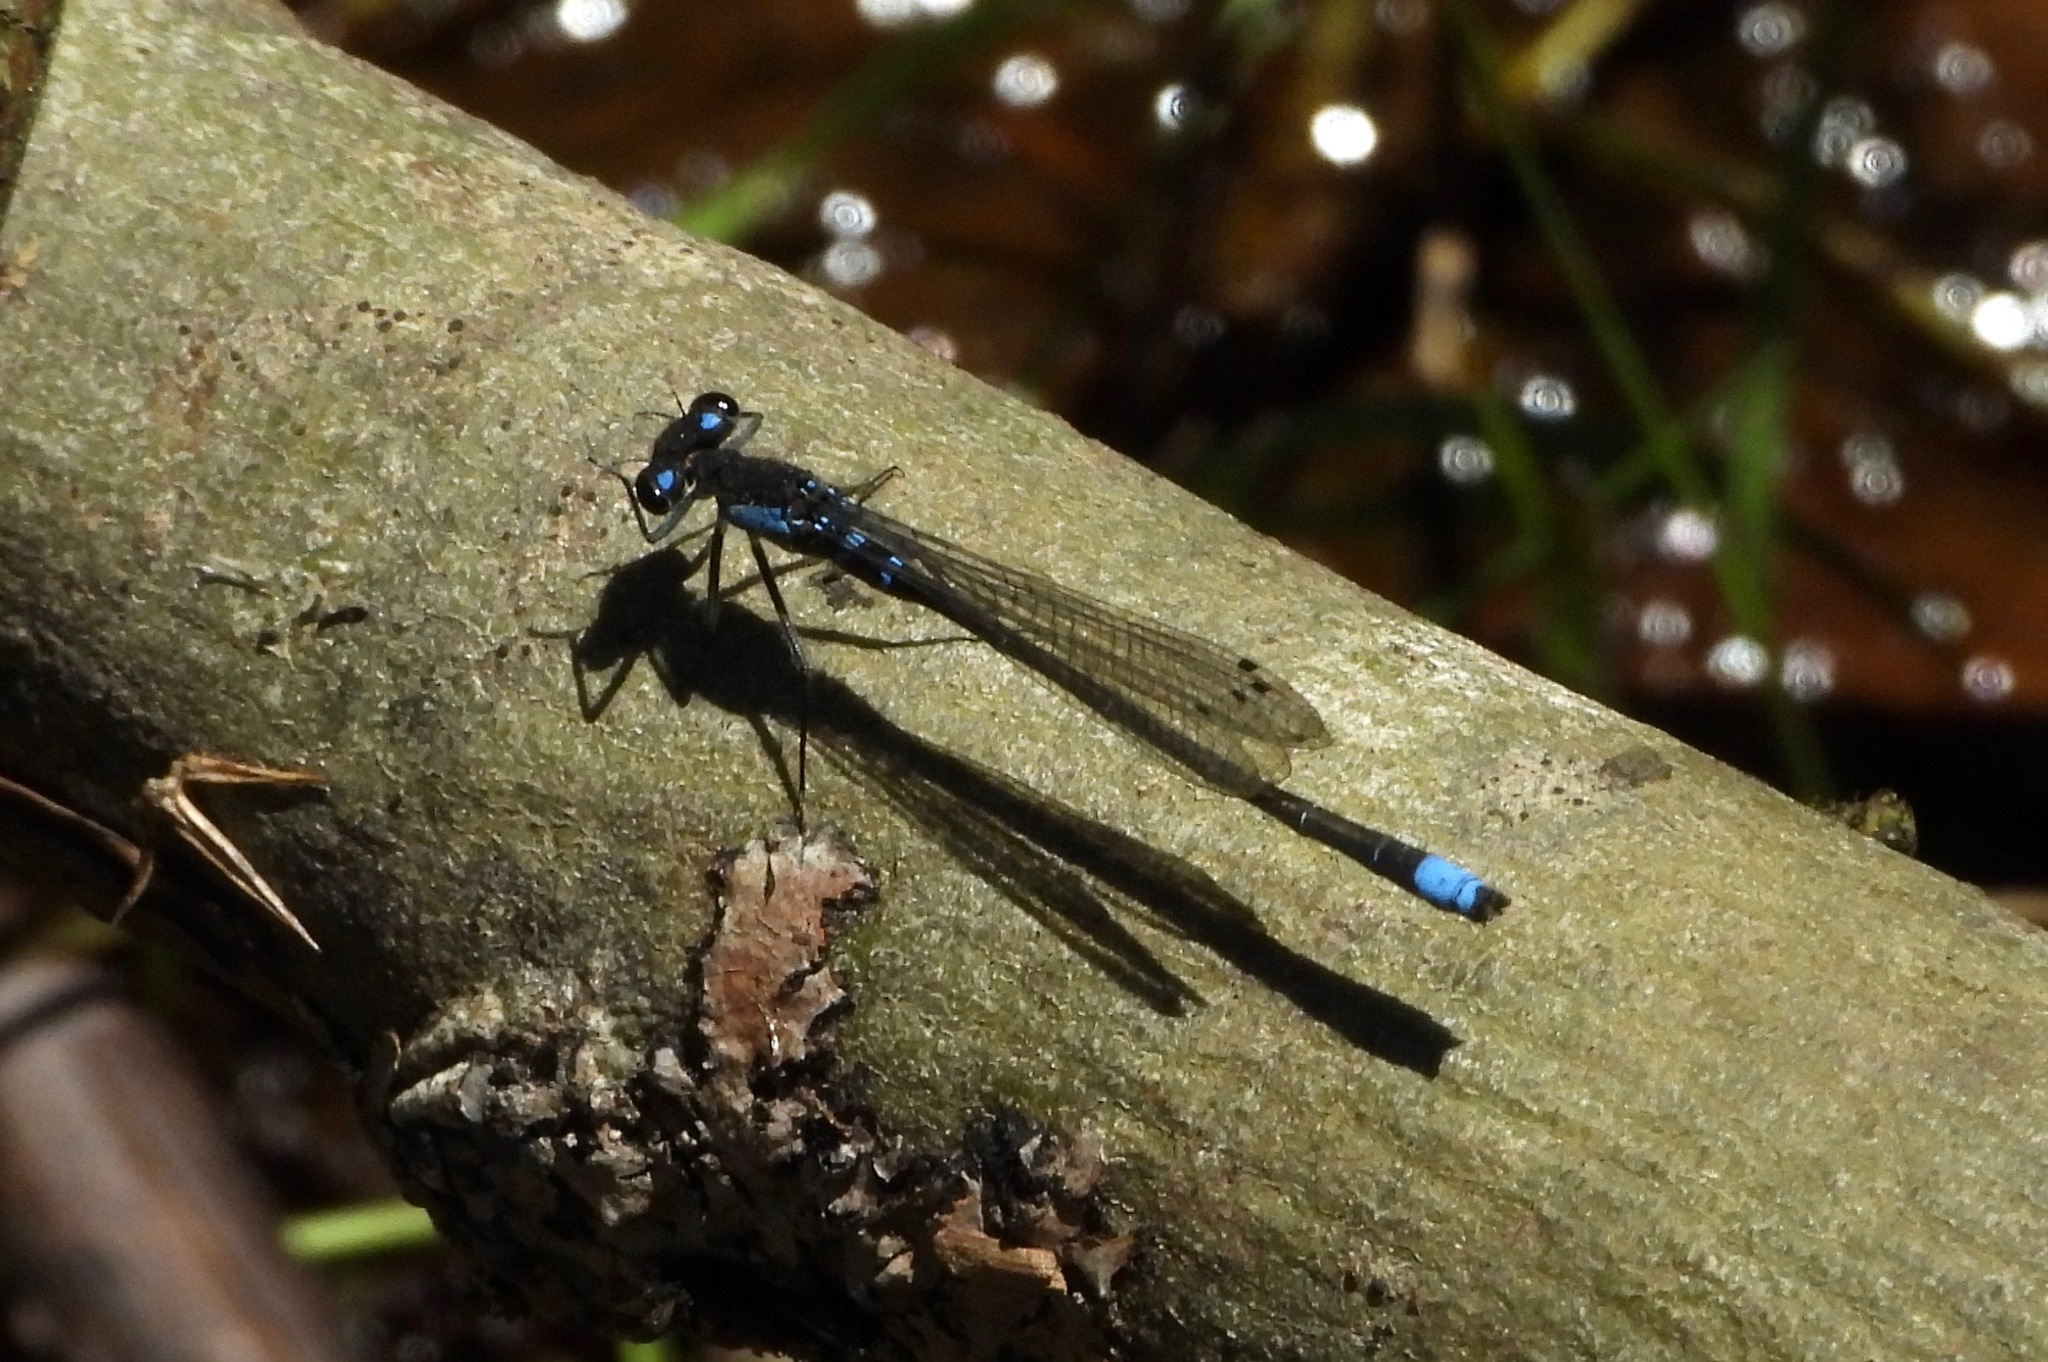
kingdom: Animalia
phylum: Arthropoda
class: Insecta
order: Odonata
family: Coenagrionidae
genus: Cyanallagma
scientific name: Cyanallagma interruptum
